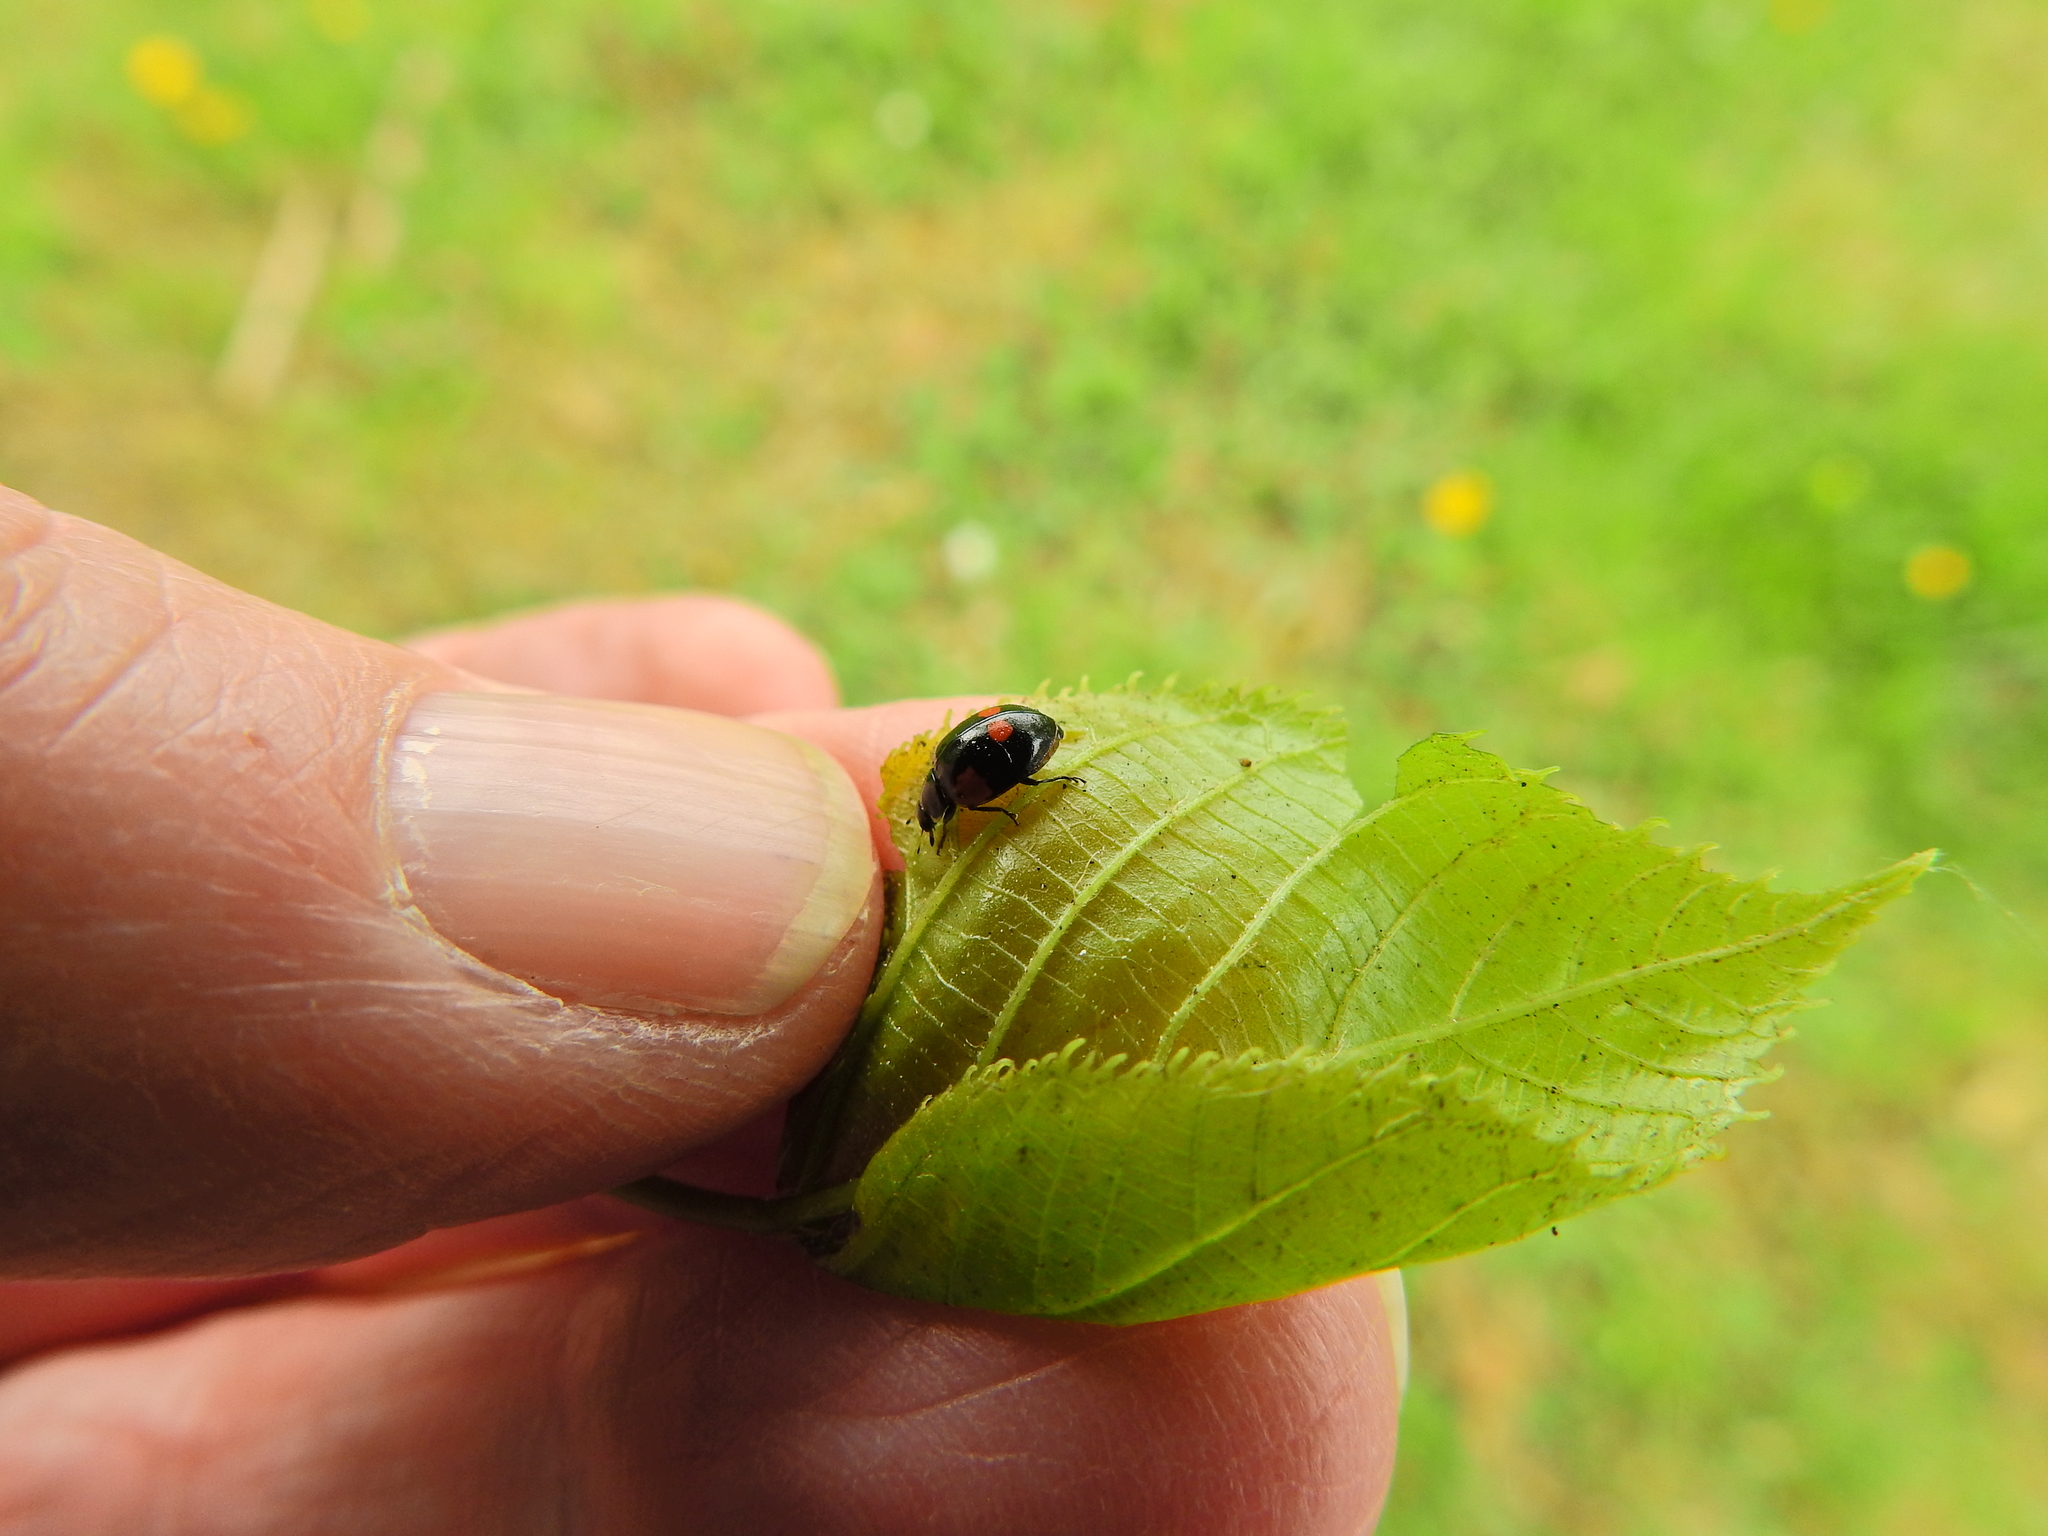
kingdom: Animalia
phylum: Arthropoda
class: Insecta
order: Coleoptera
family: Coccinellidae
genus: Adalia
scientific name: Adalia bipunctata
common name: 2-spot ladybird
